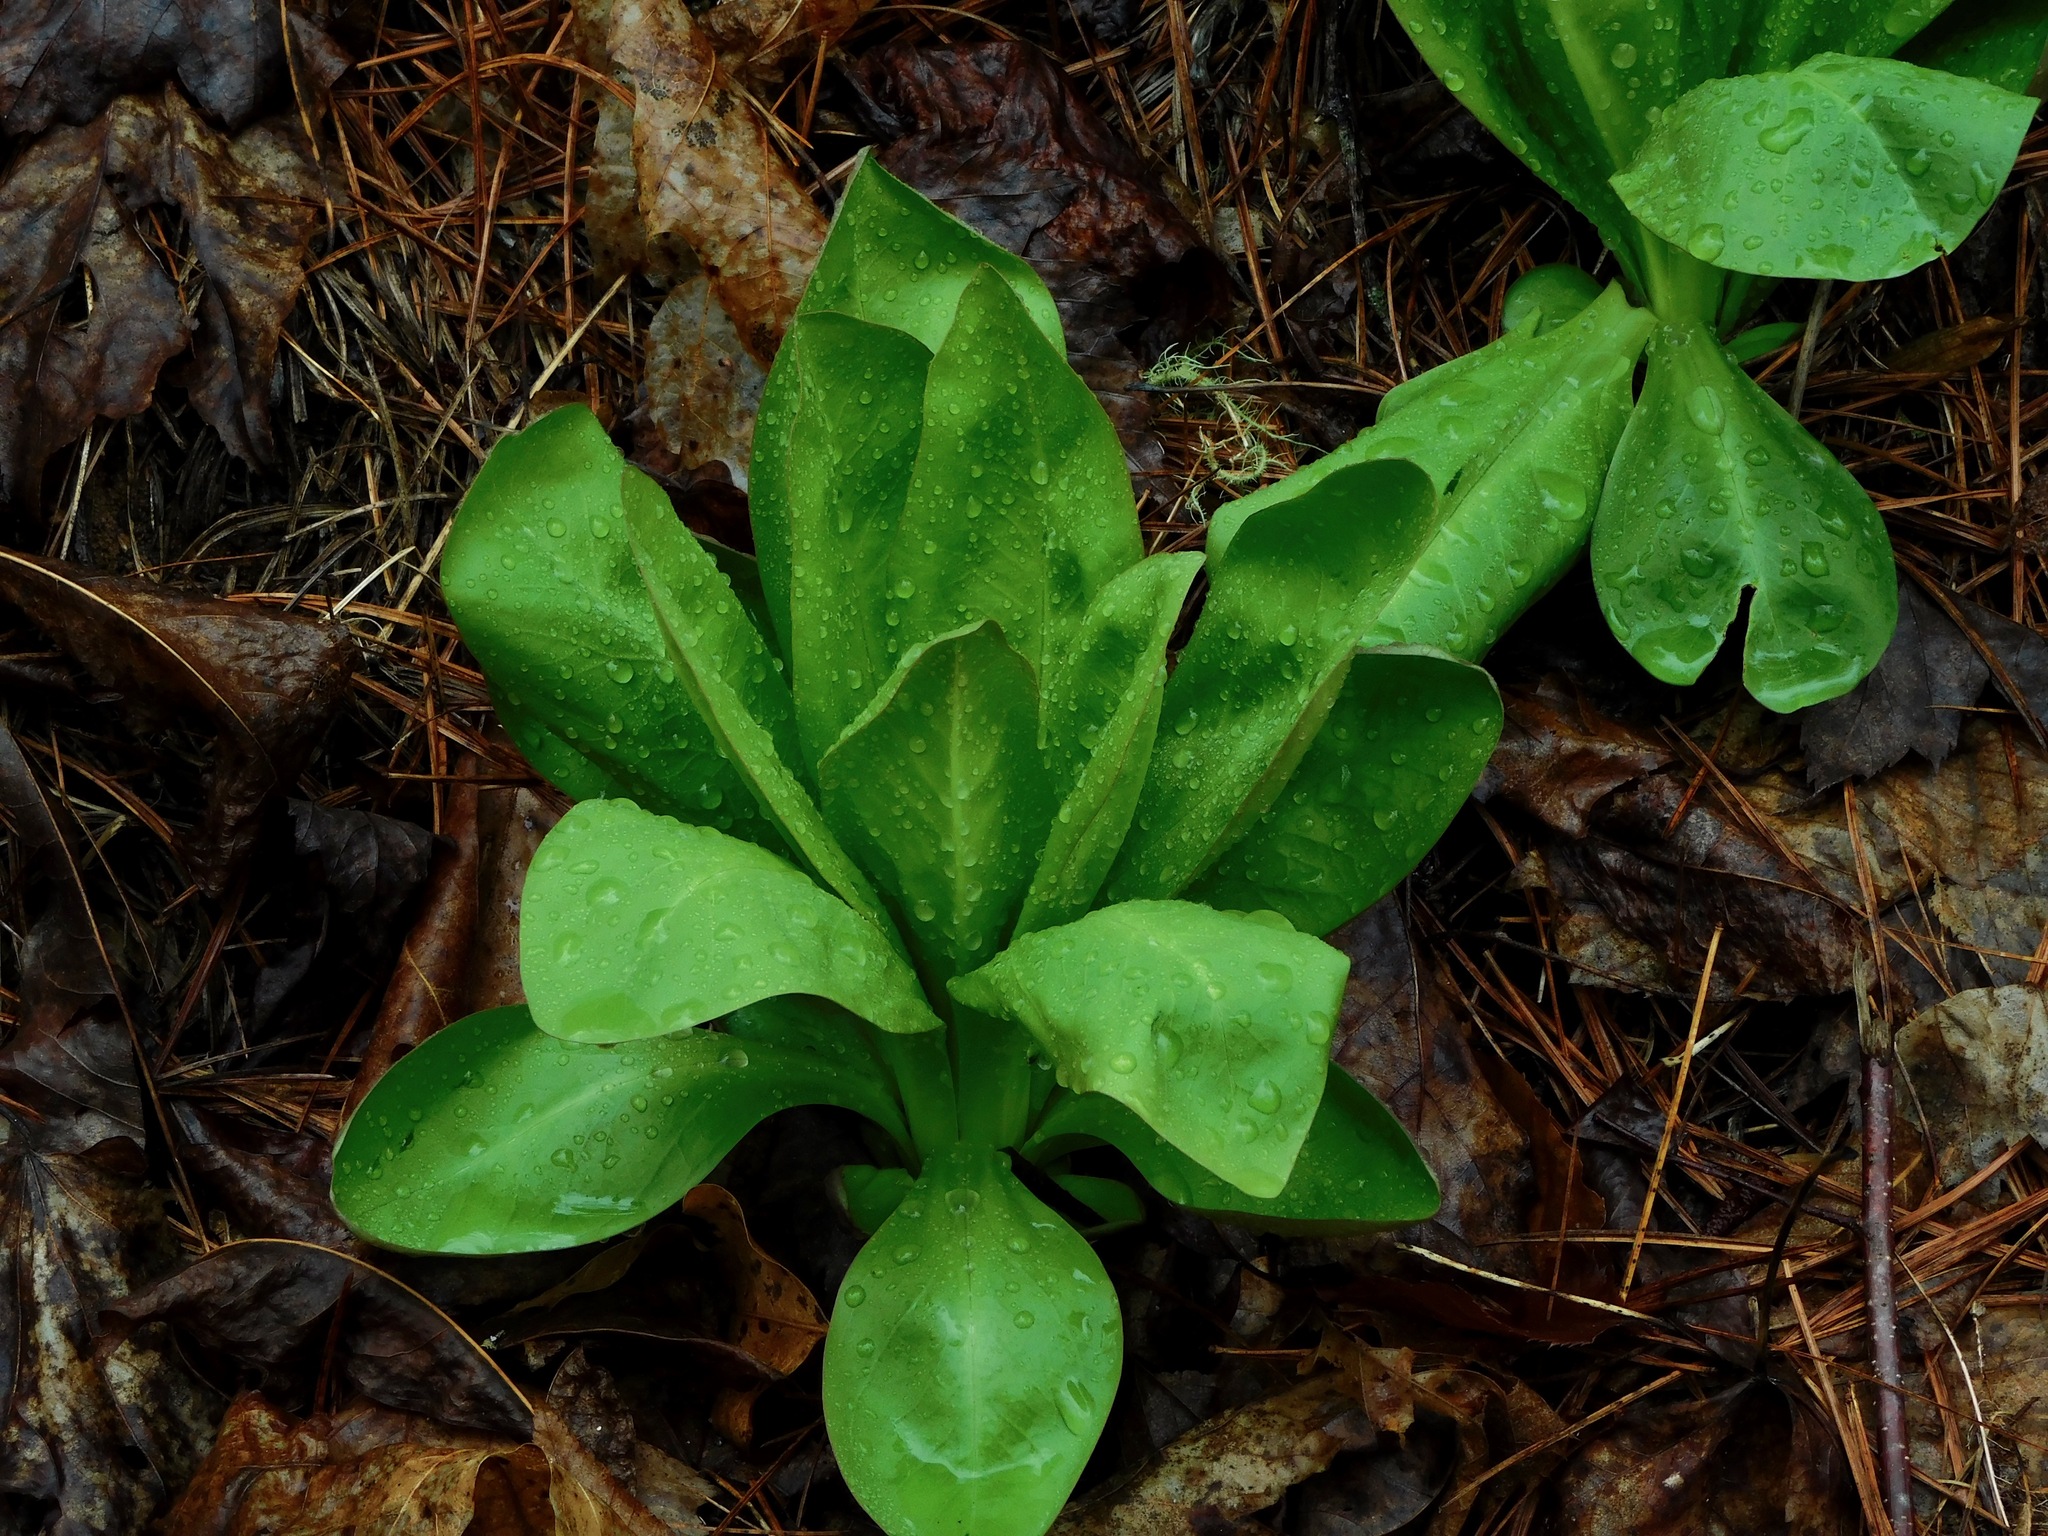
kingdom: Plantae
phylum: Tracheophyta
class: Magnoliopsida
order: Gentianales
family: Gentianaceae
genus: Frasera
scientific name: Frasera caroliniensis
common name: American columbo
